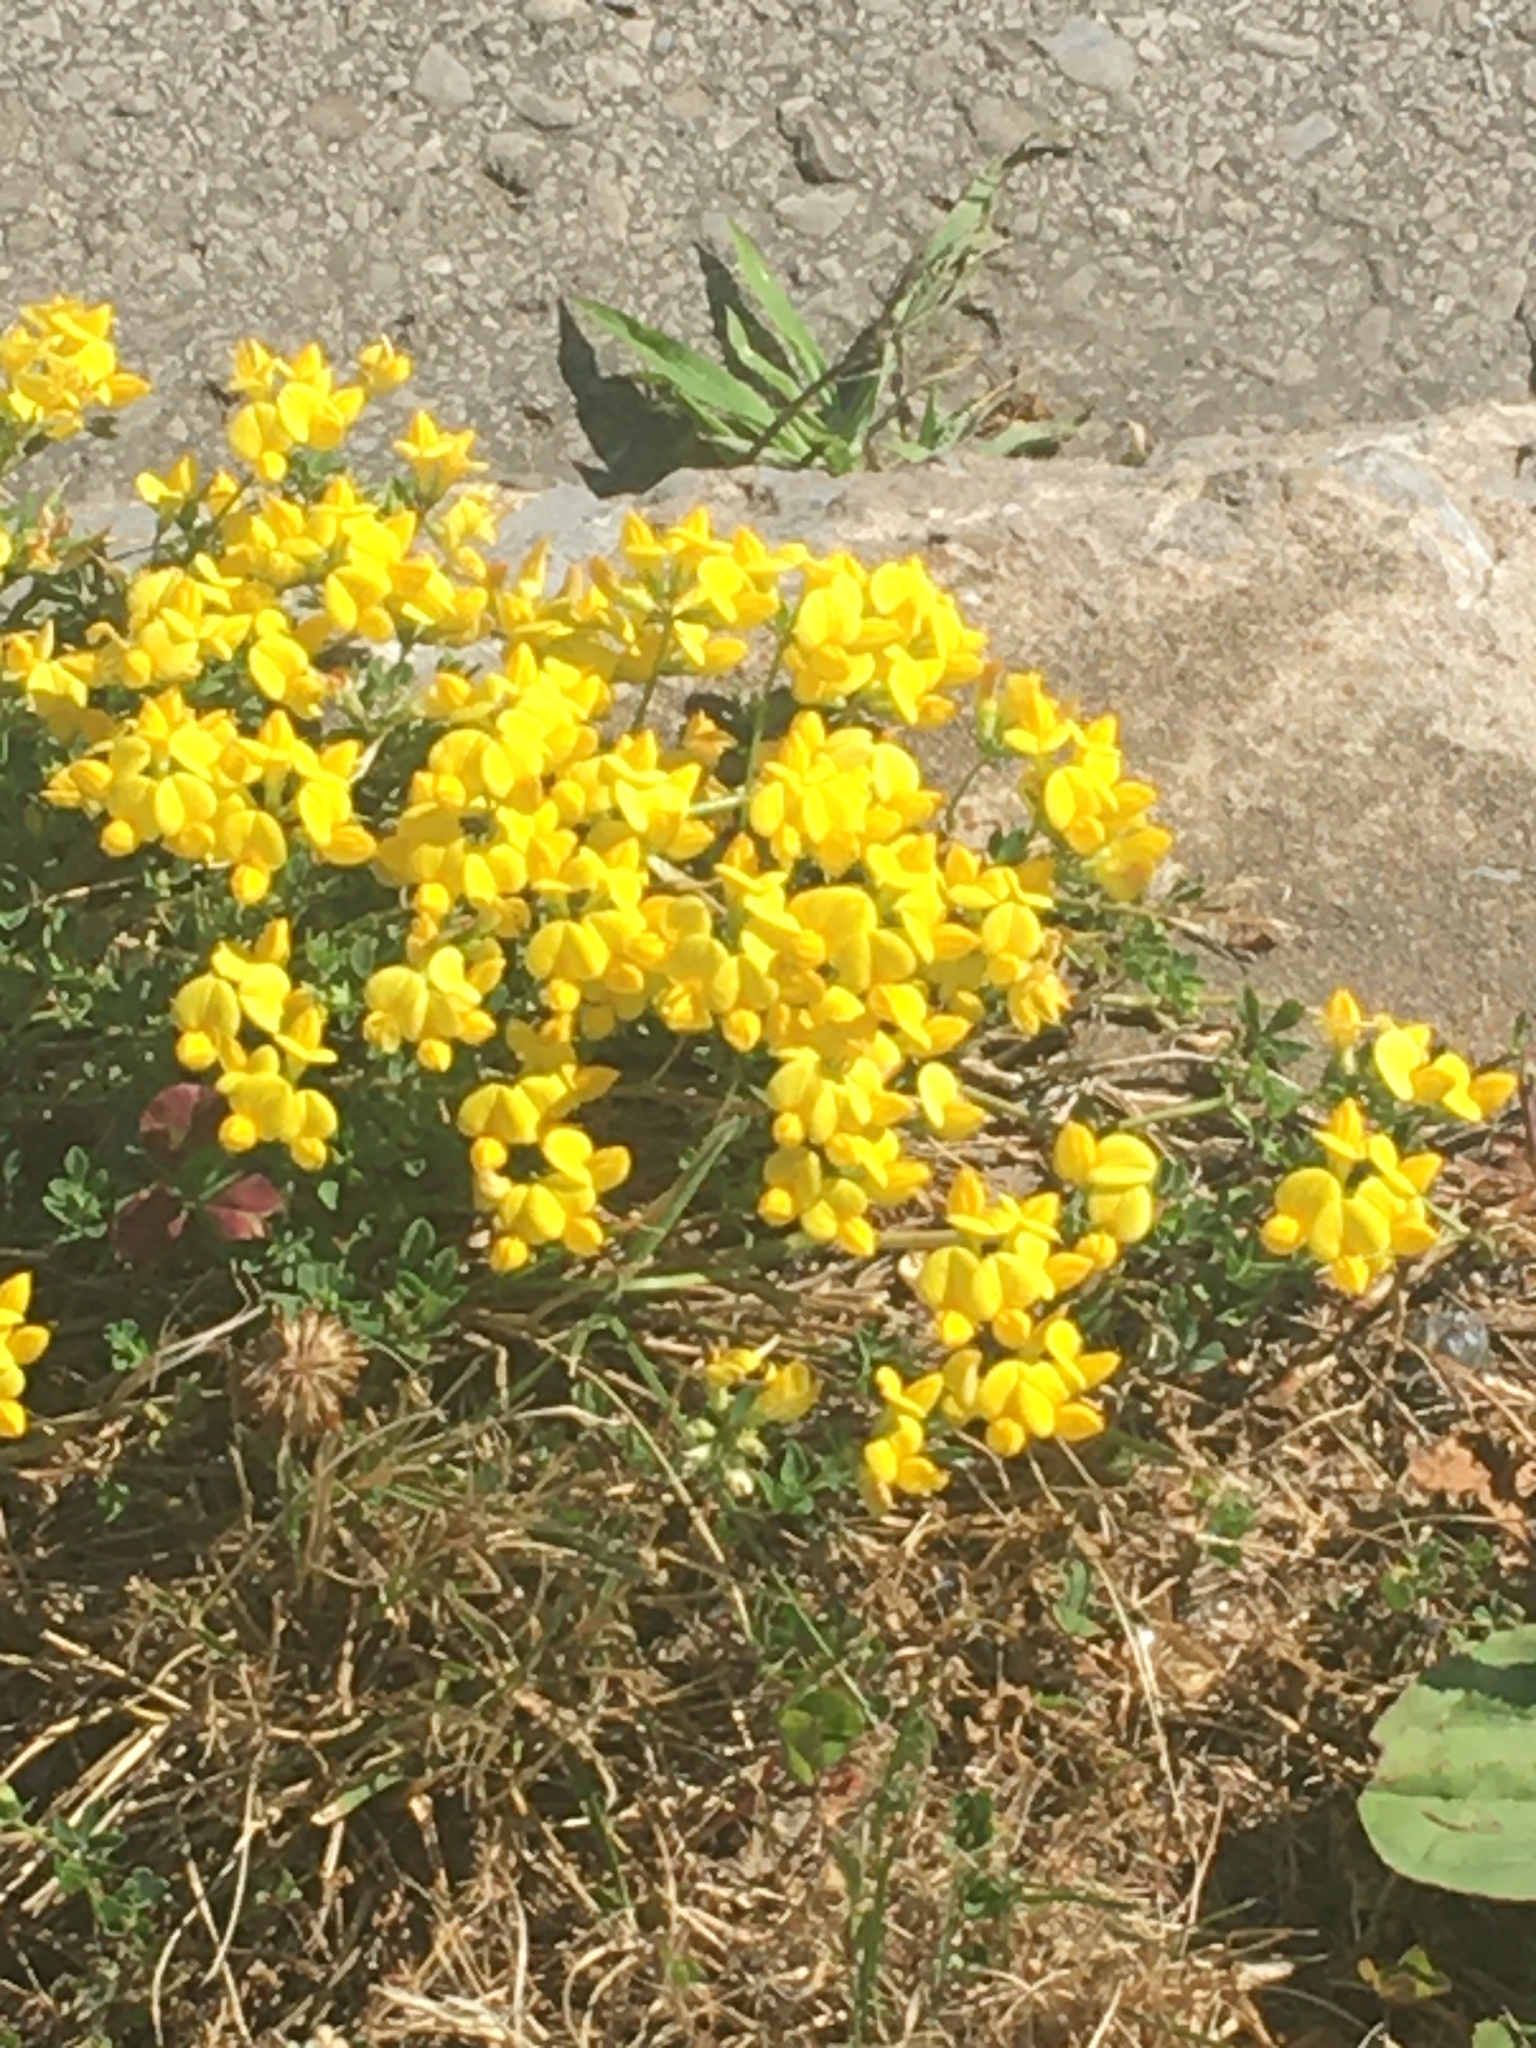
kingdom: Plantae
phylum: Tracheophyta
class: Magnoliopsida
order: Fabales
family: Fabaceae
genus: Lotus
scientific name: Lotus corniculatus
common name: Common bird's-foot-trefoil
